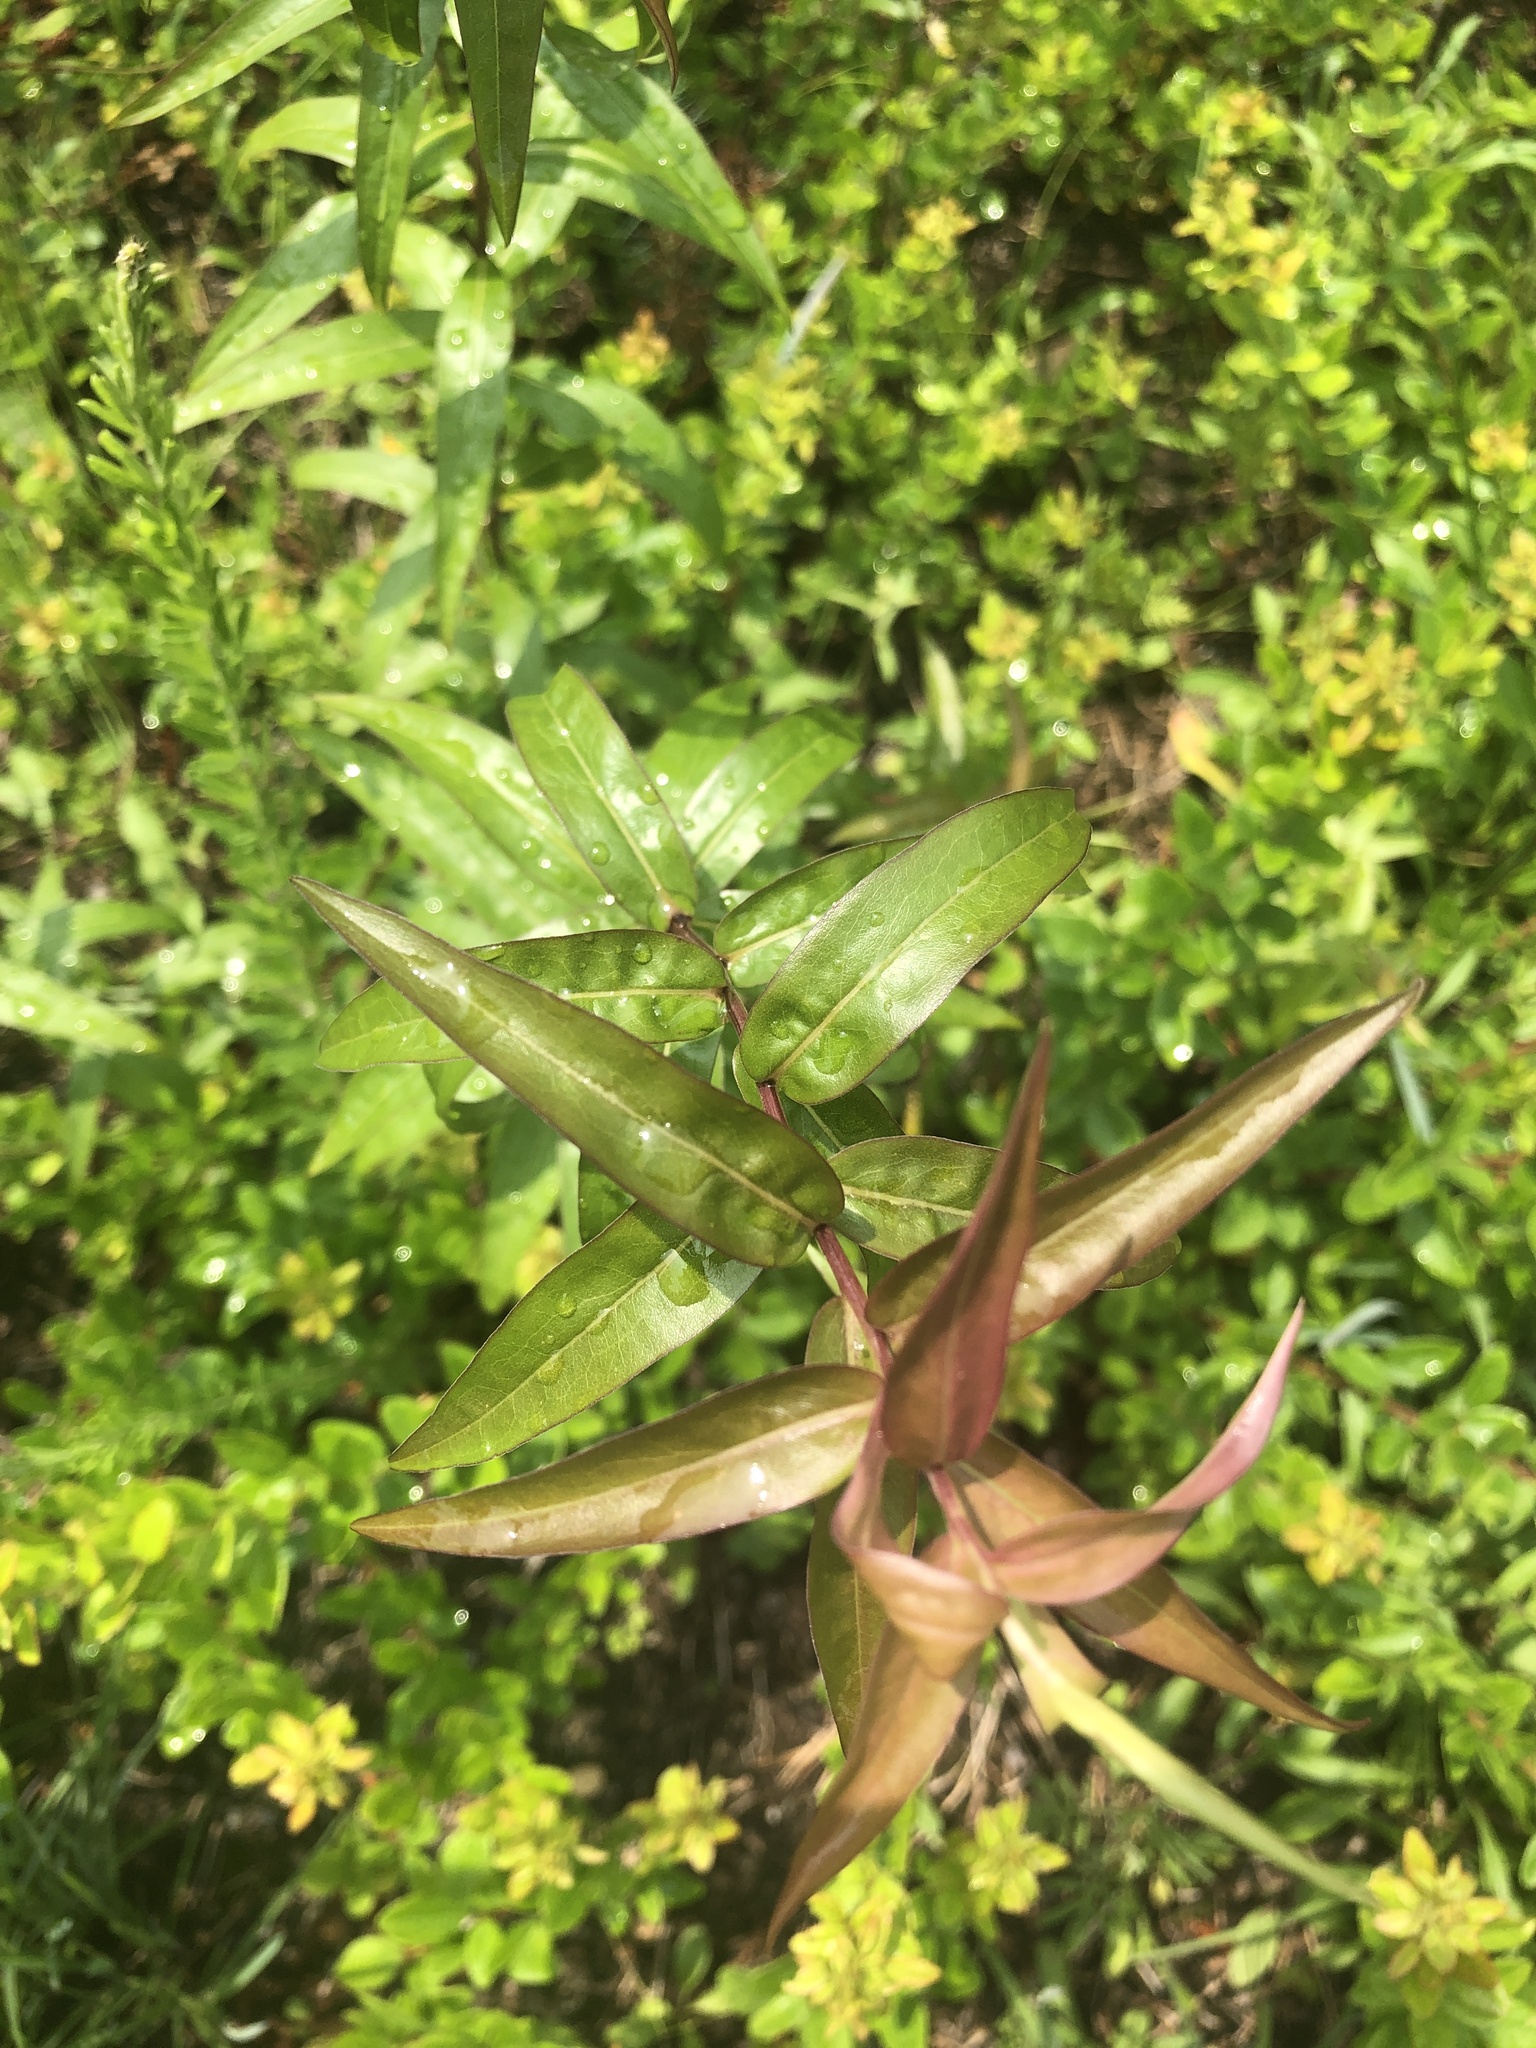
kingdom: Plantae
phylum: Tracheophyta
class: Magnoliopsida
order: Asterales
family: Asteraceae
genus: Solidago
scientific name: Solidago odora
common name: Anise-scented goldenrod
